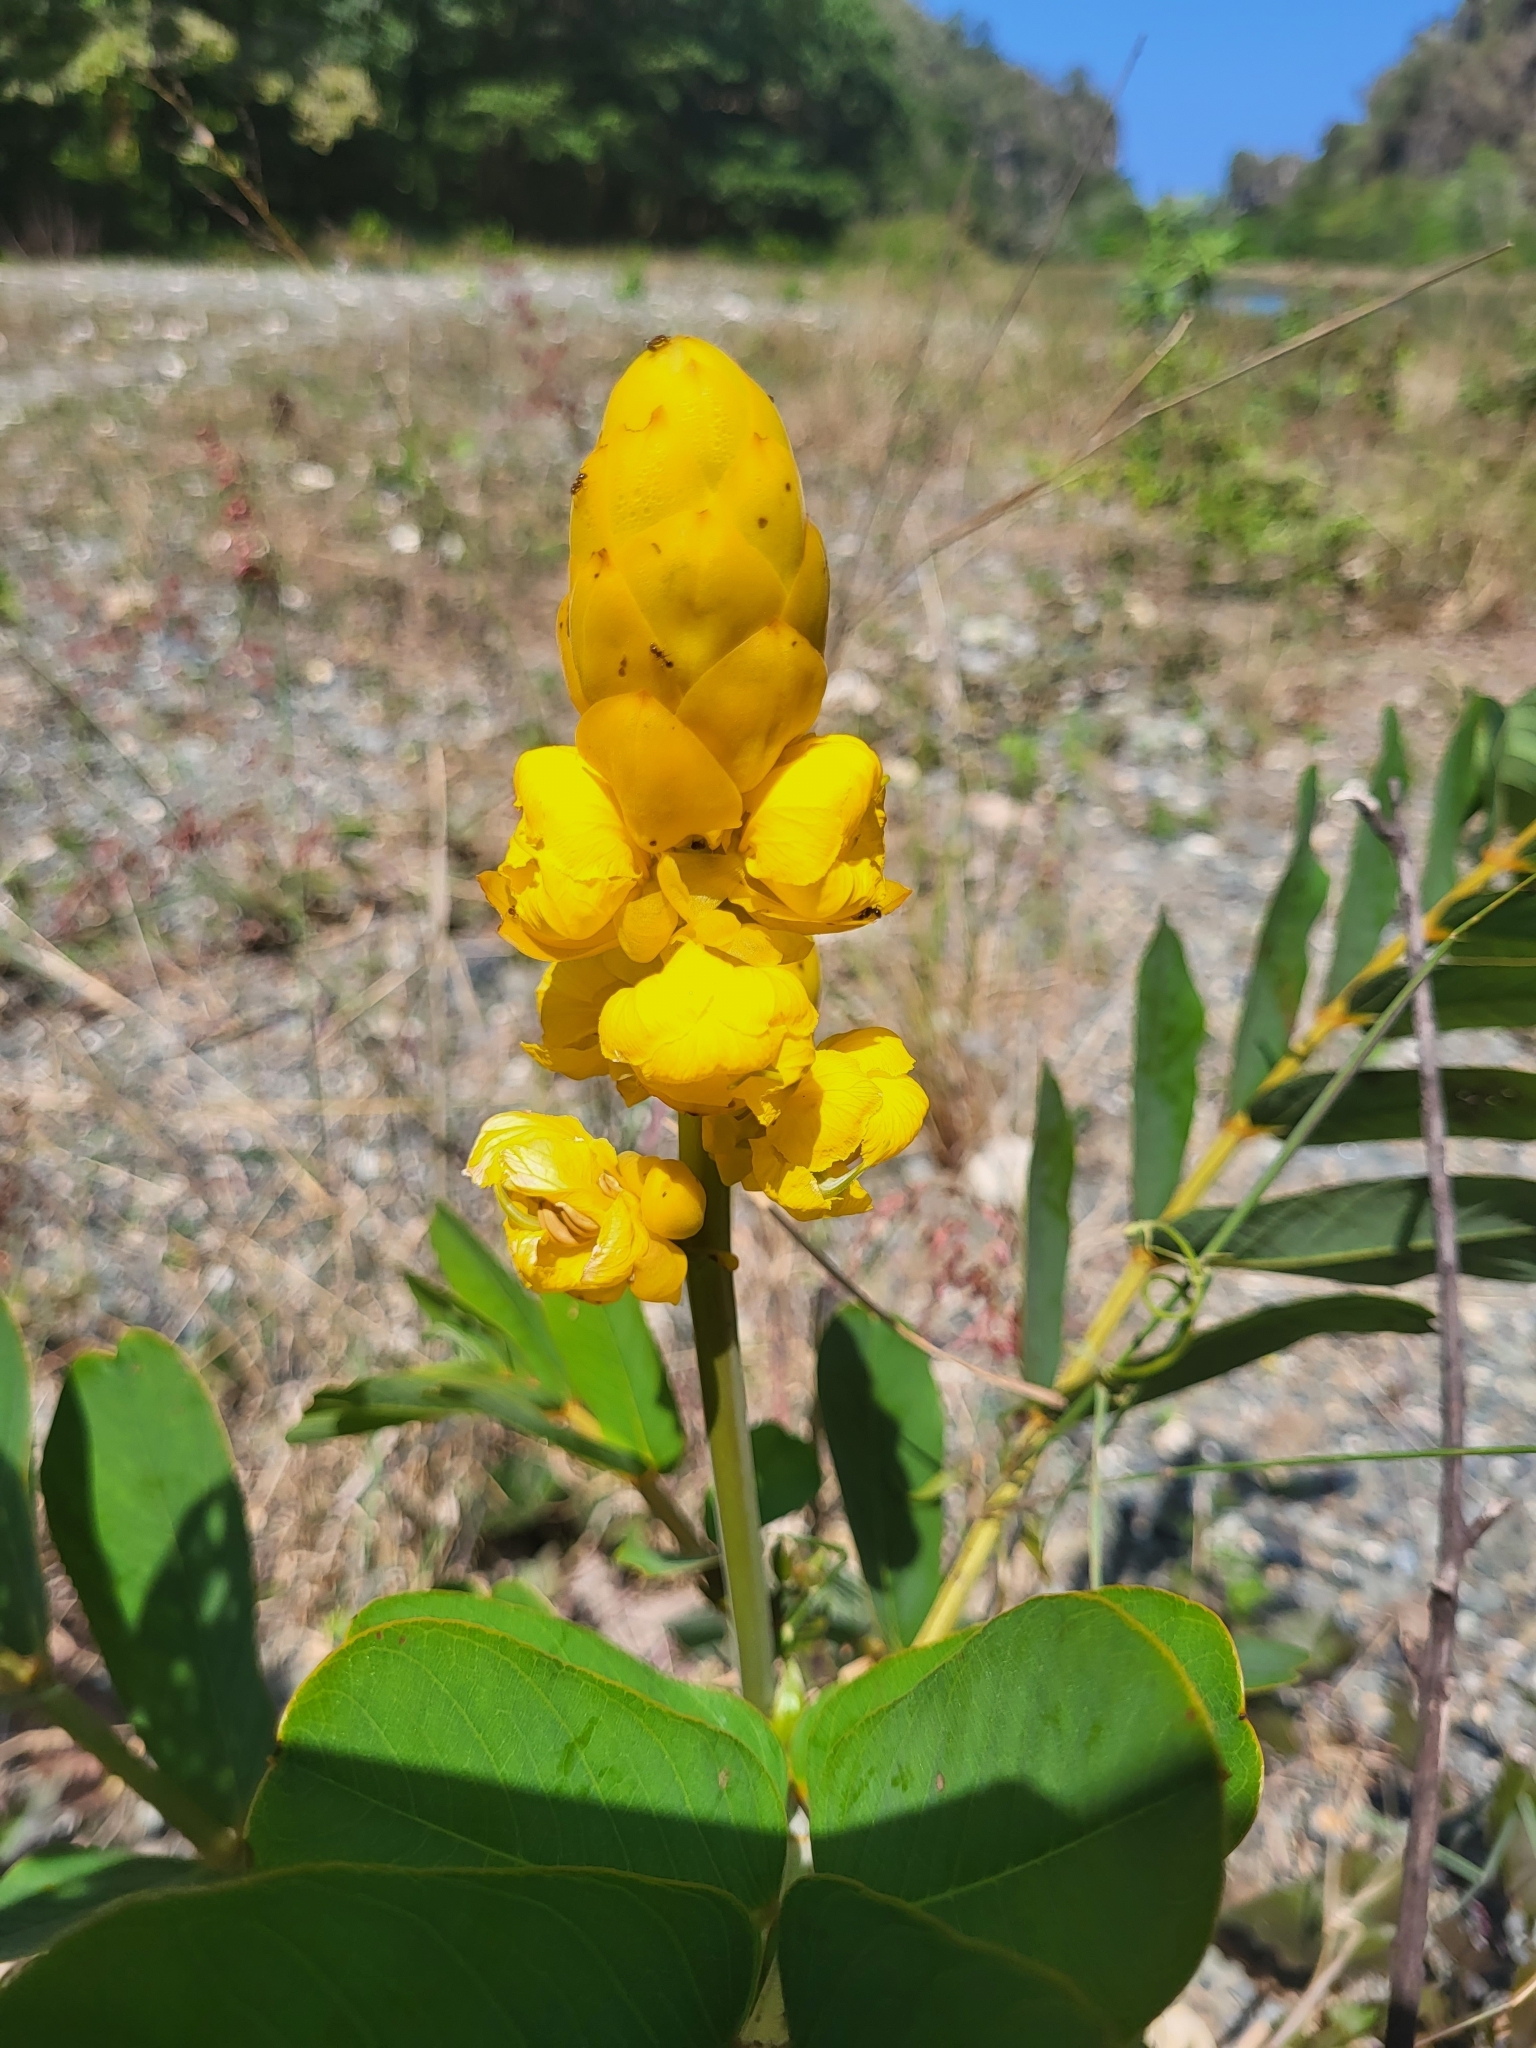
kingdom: Plantae
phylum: Tracheophyta
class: Magnoliopsida
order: Fabales
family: Fabaceae
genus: Senna
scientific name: Senna alata
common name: Emperor's candlesticks
